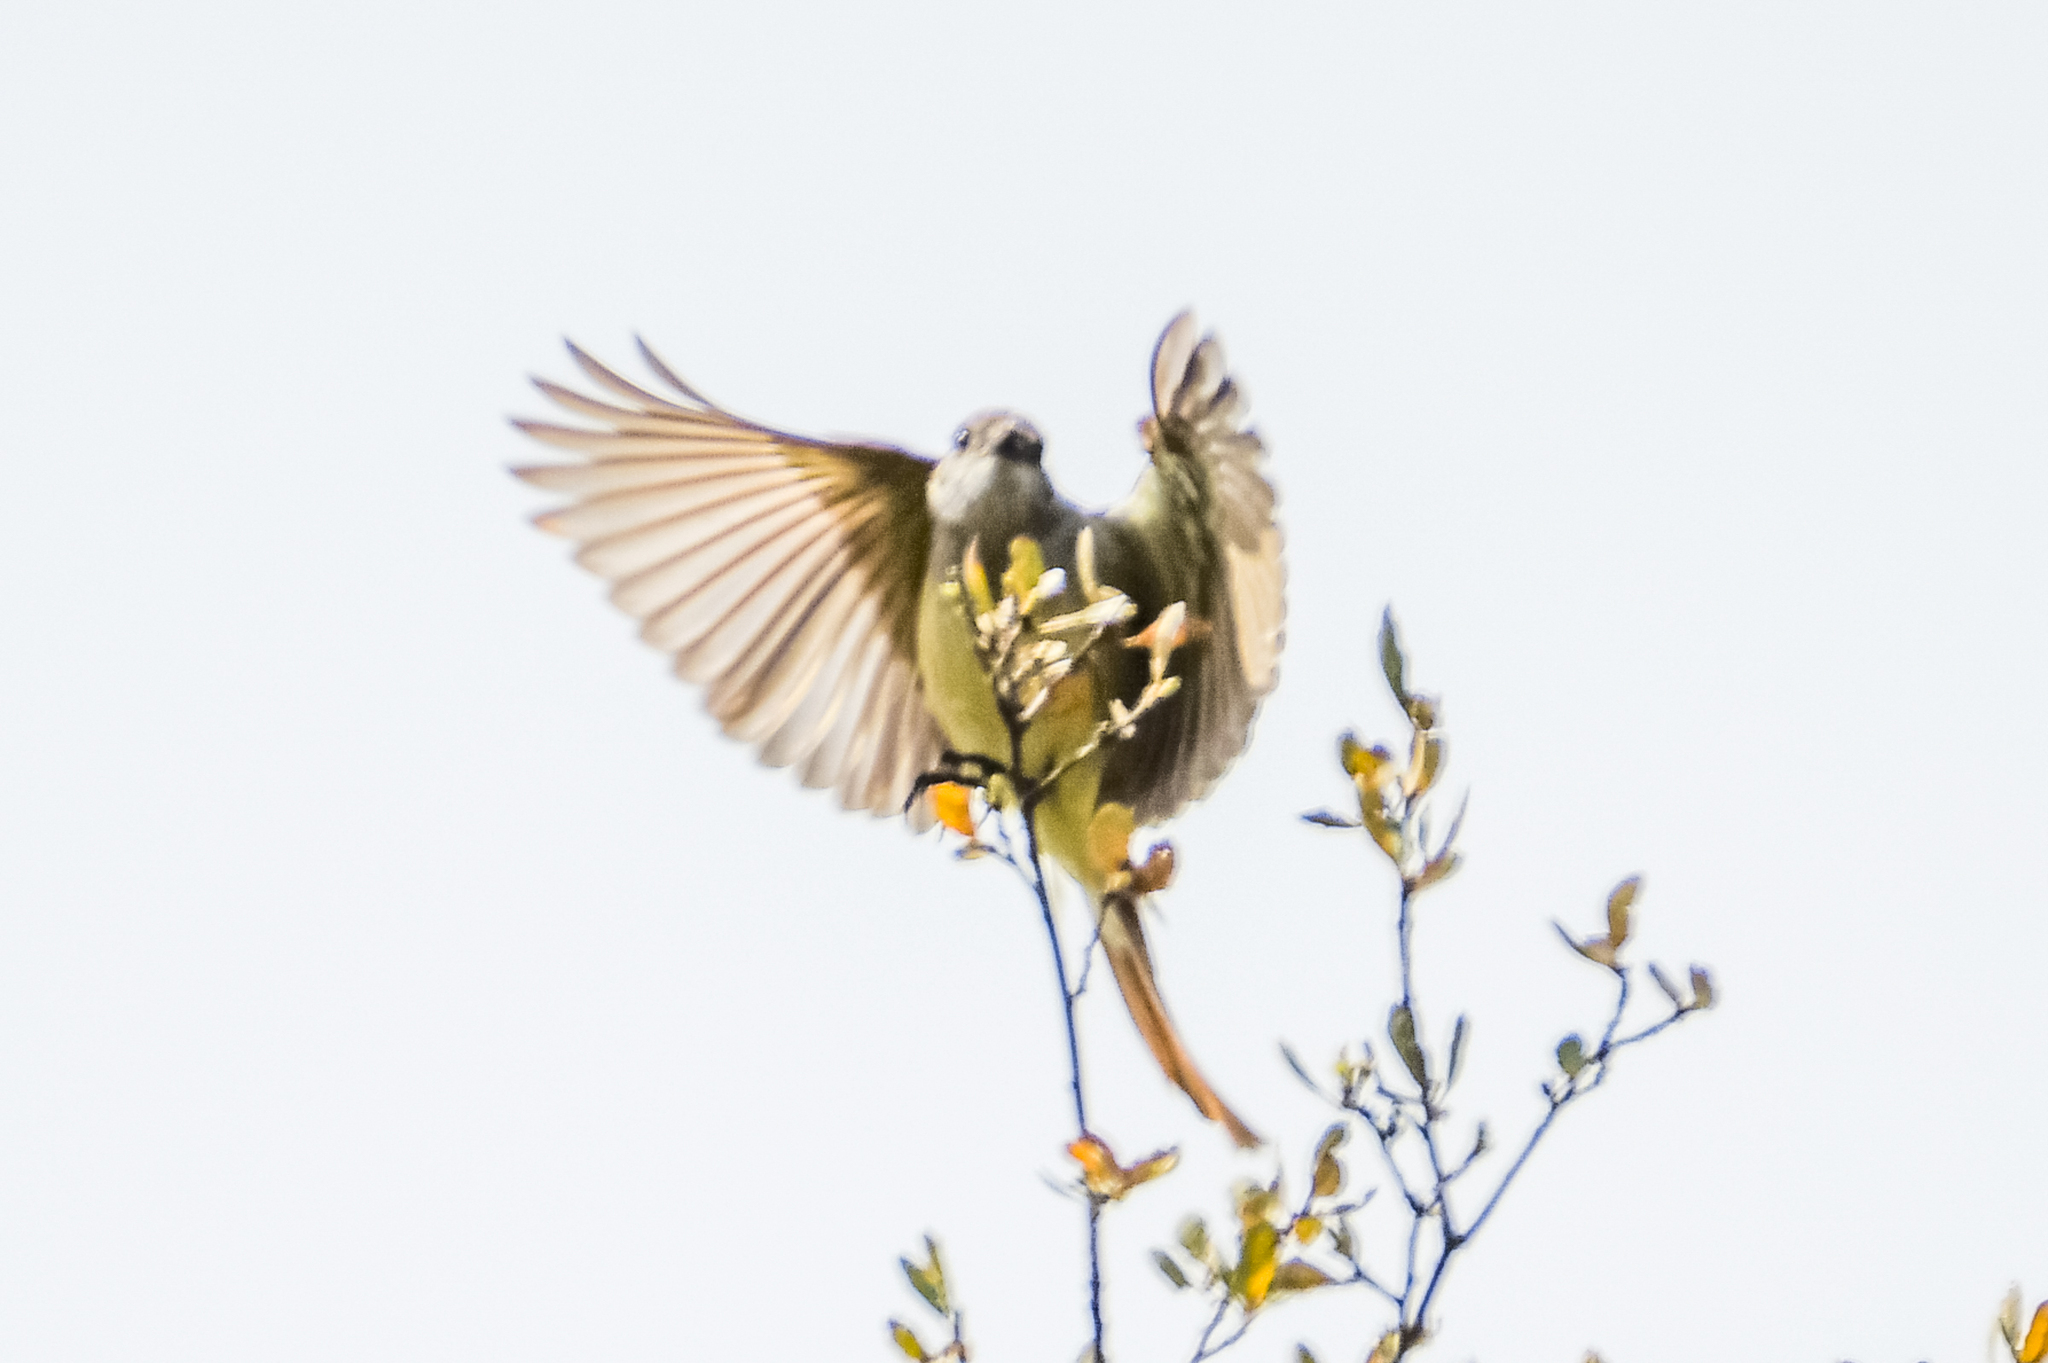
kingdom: Animalia
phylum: Chordata
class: Aves
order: Passeriformes
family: Tyrannidae
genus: Myiarchus
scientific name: Myiarchus cinerascens
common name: Ash-throated flycatcher
